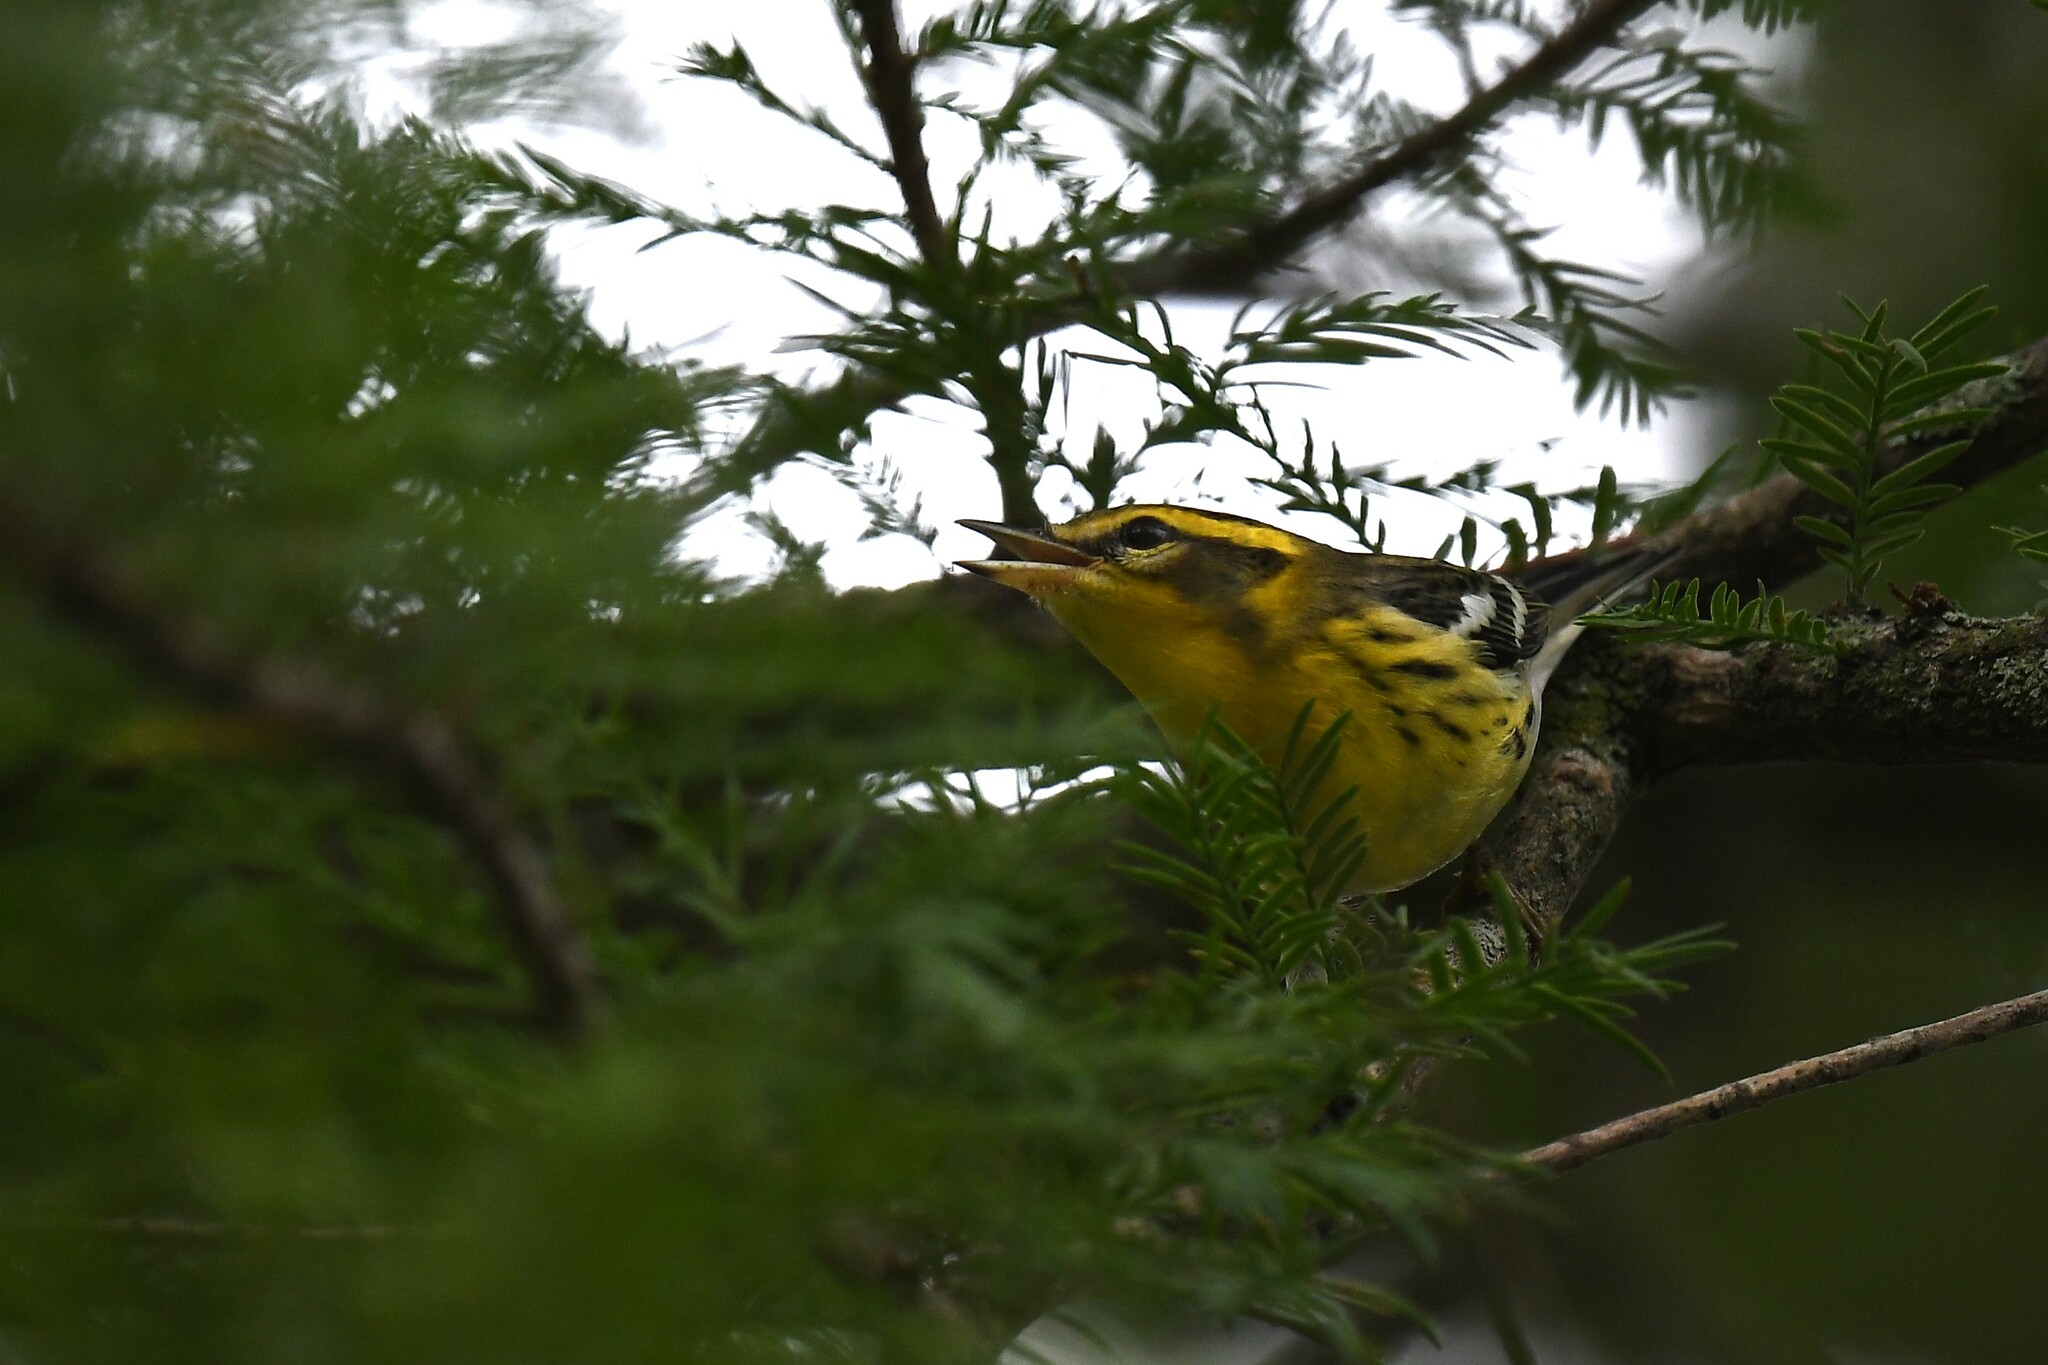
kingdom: Animalia
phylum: Chordata
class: Aves
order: Passeriformes
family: Parulidae
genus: Setophaga
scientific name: Setophaga fusca
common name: Blackburnian warbler
